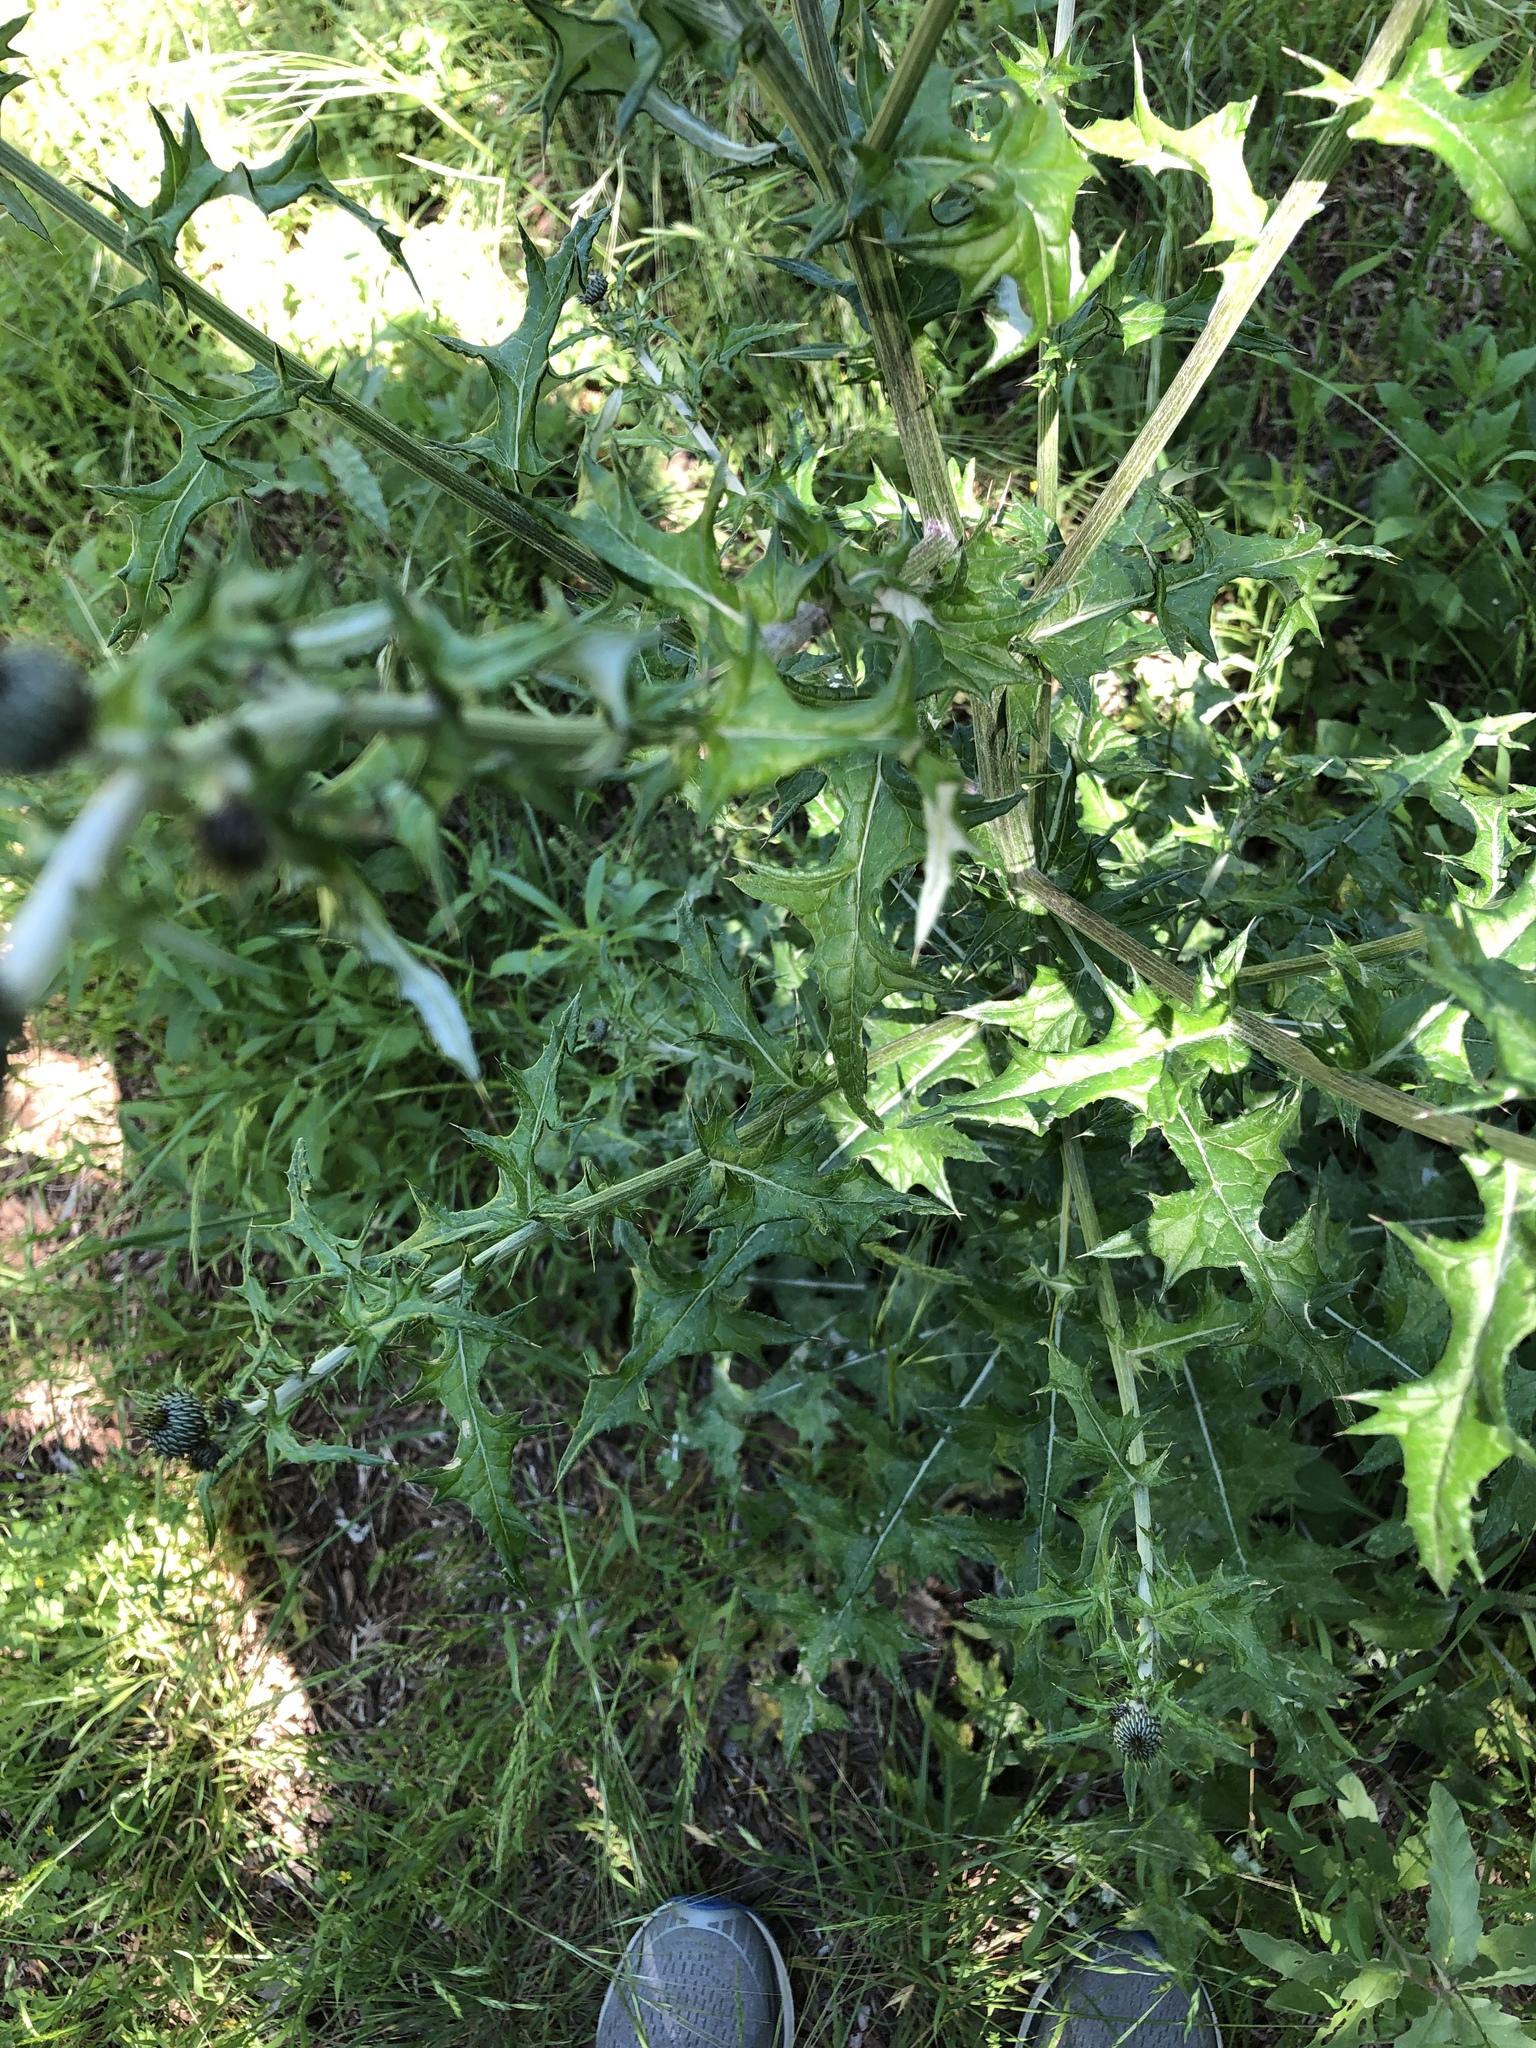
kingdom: Plantae
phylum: Tracheophyta
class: Magnoliopsida
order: Asterales
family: Asteraceae
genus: Cirsium
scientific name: Cirsium texanum
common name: Texas purple thistle
